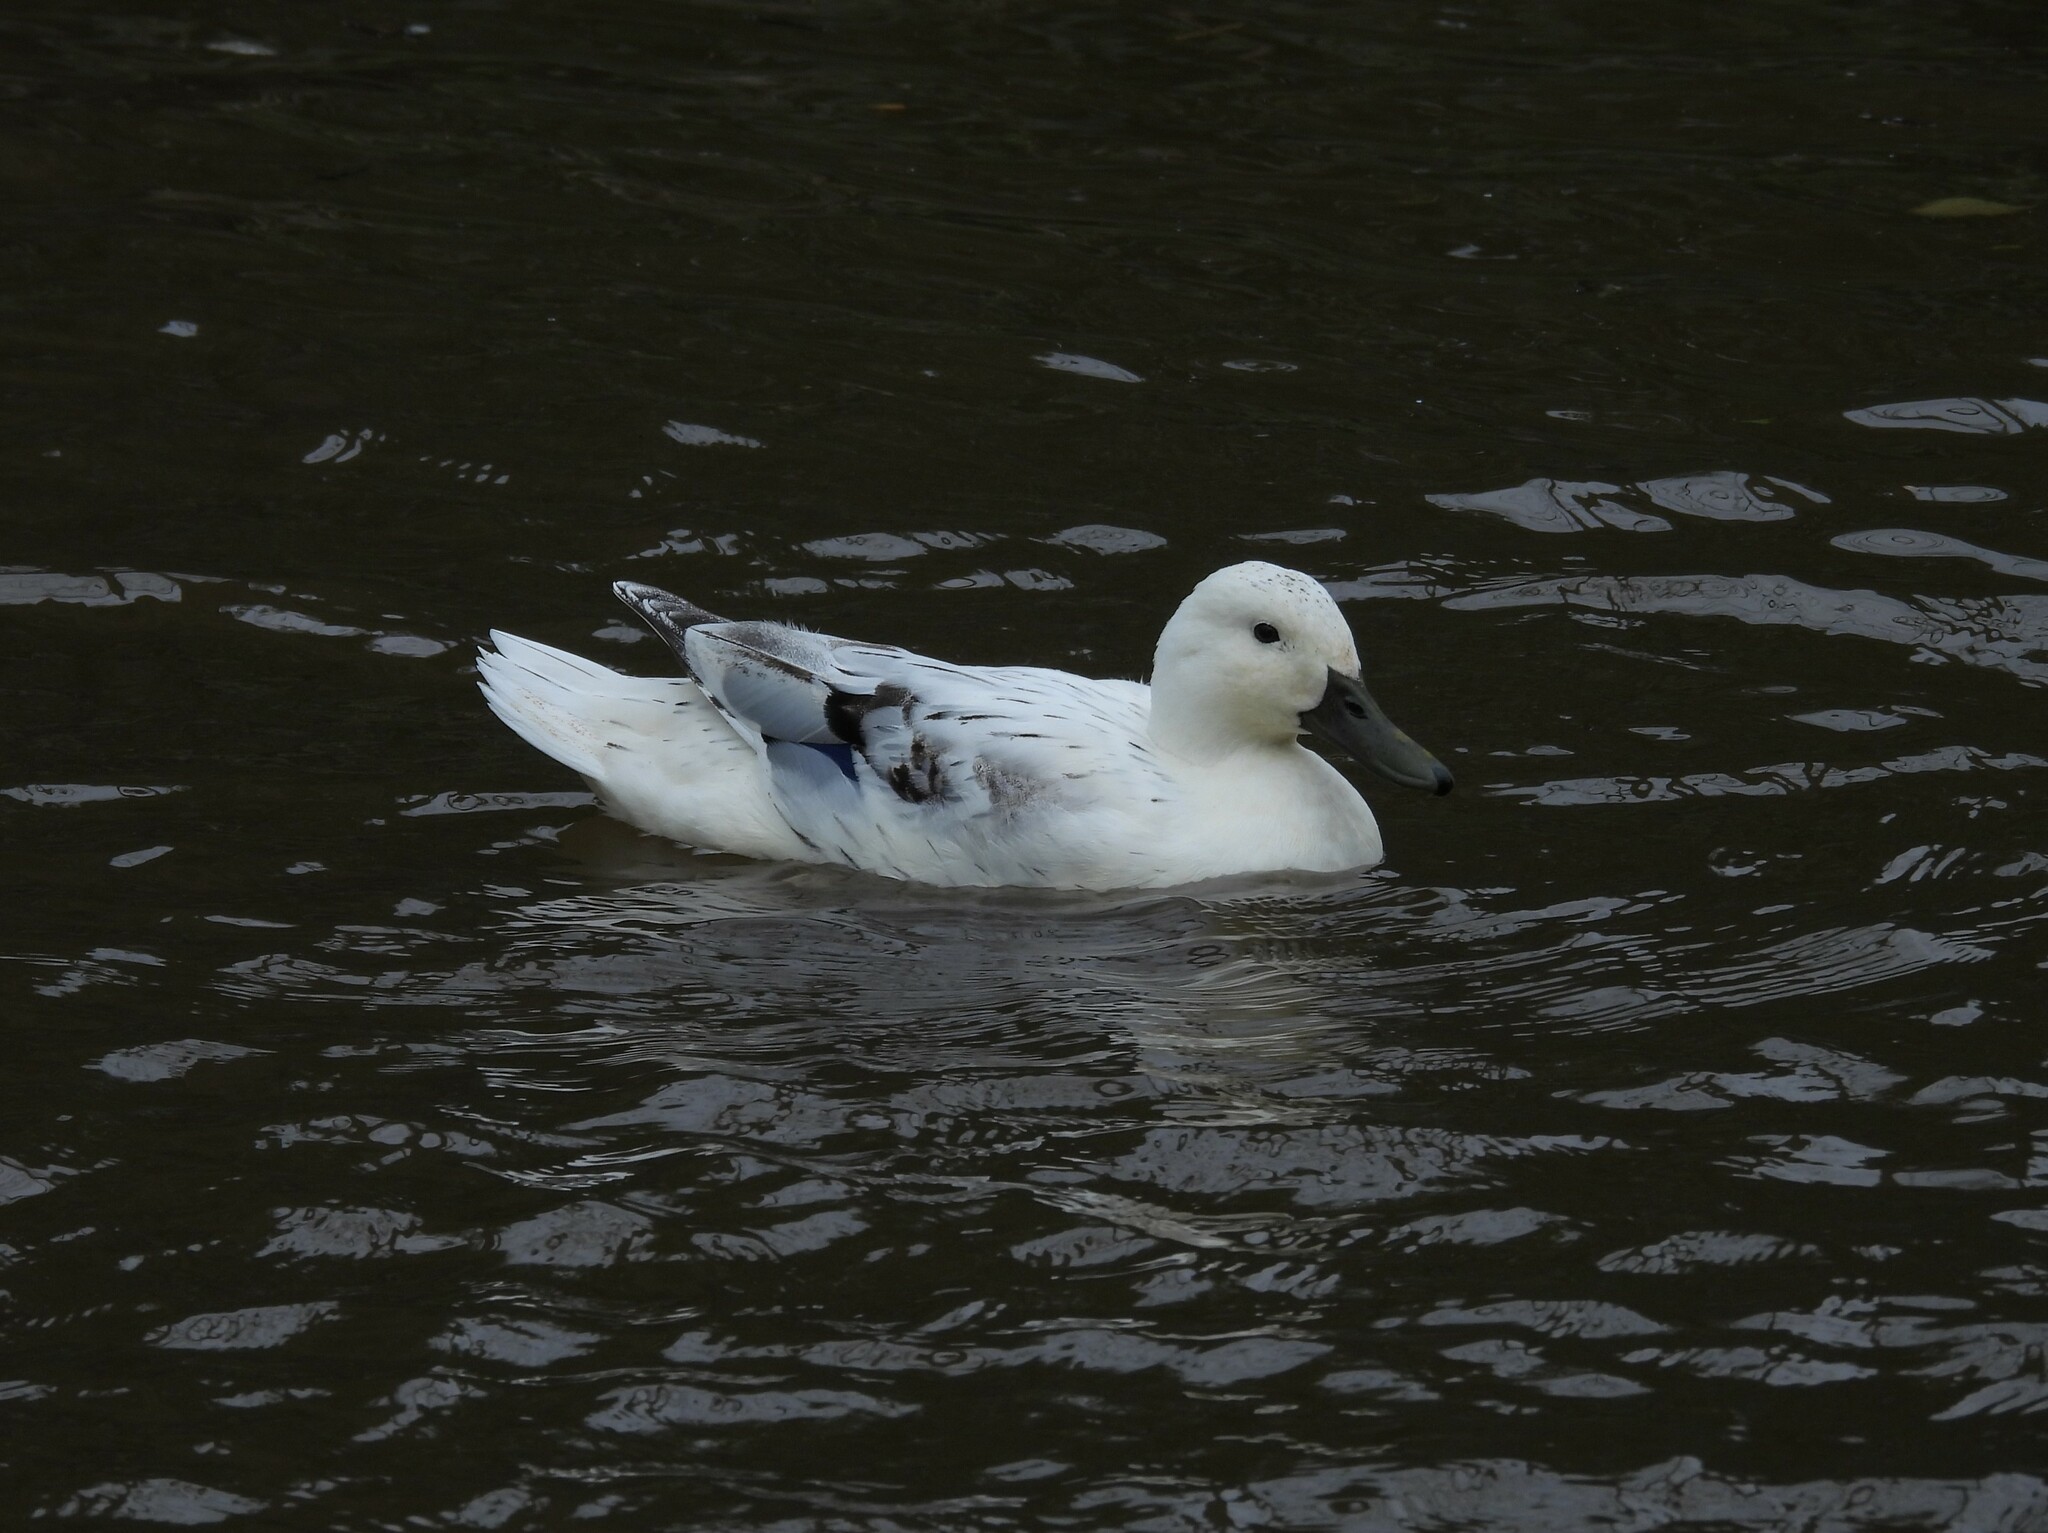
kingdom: Animalia
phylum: Chordata
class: Aves
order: Anseriformes
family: Anatidae
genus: Anas
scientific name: Anas platyrhynchos
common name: Mallard
